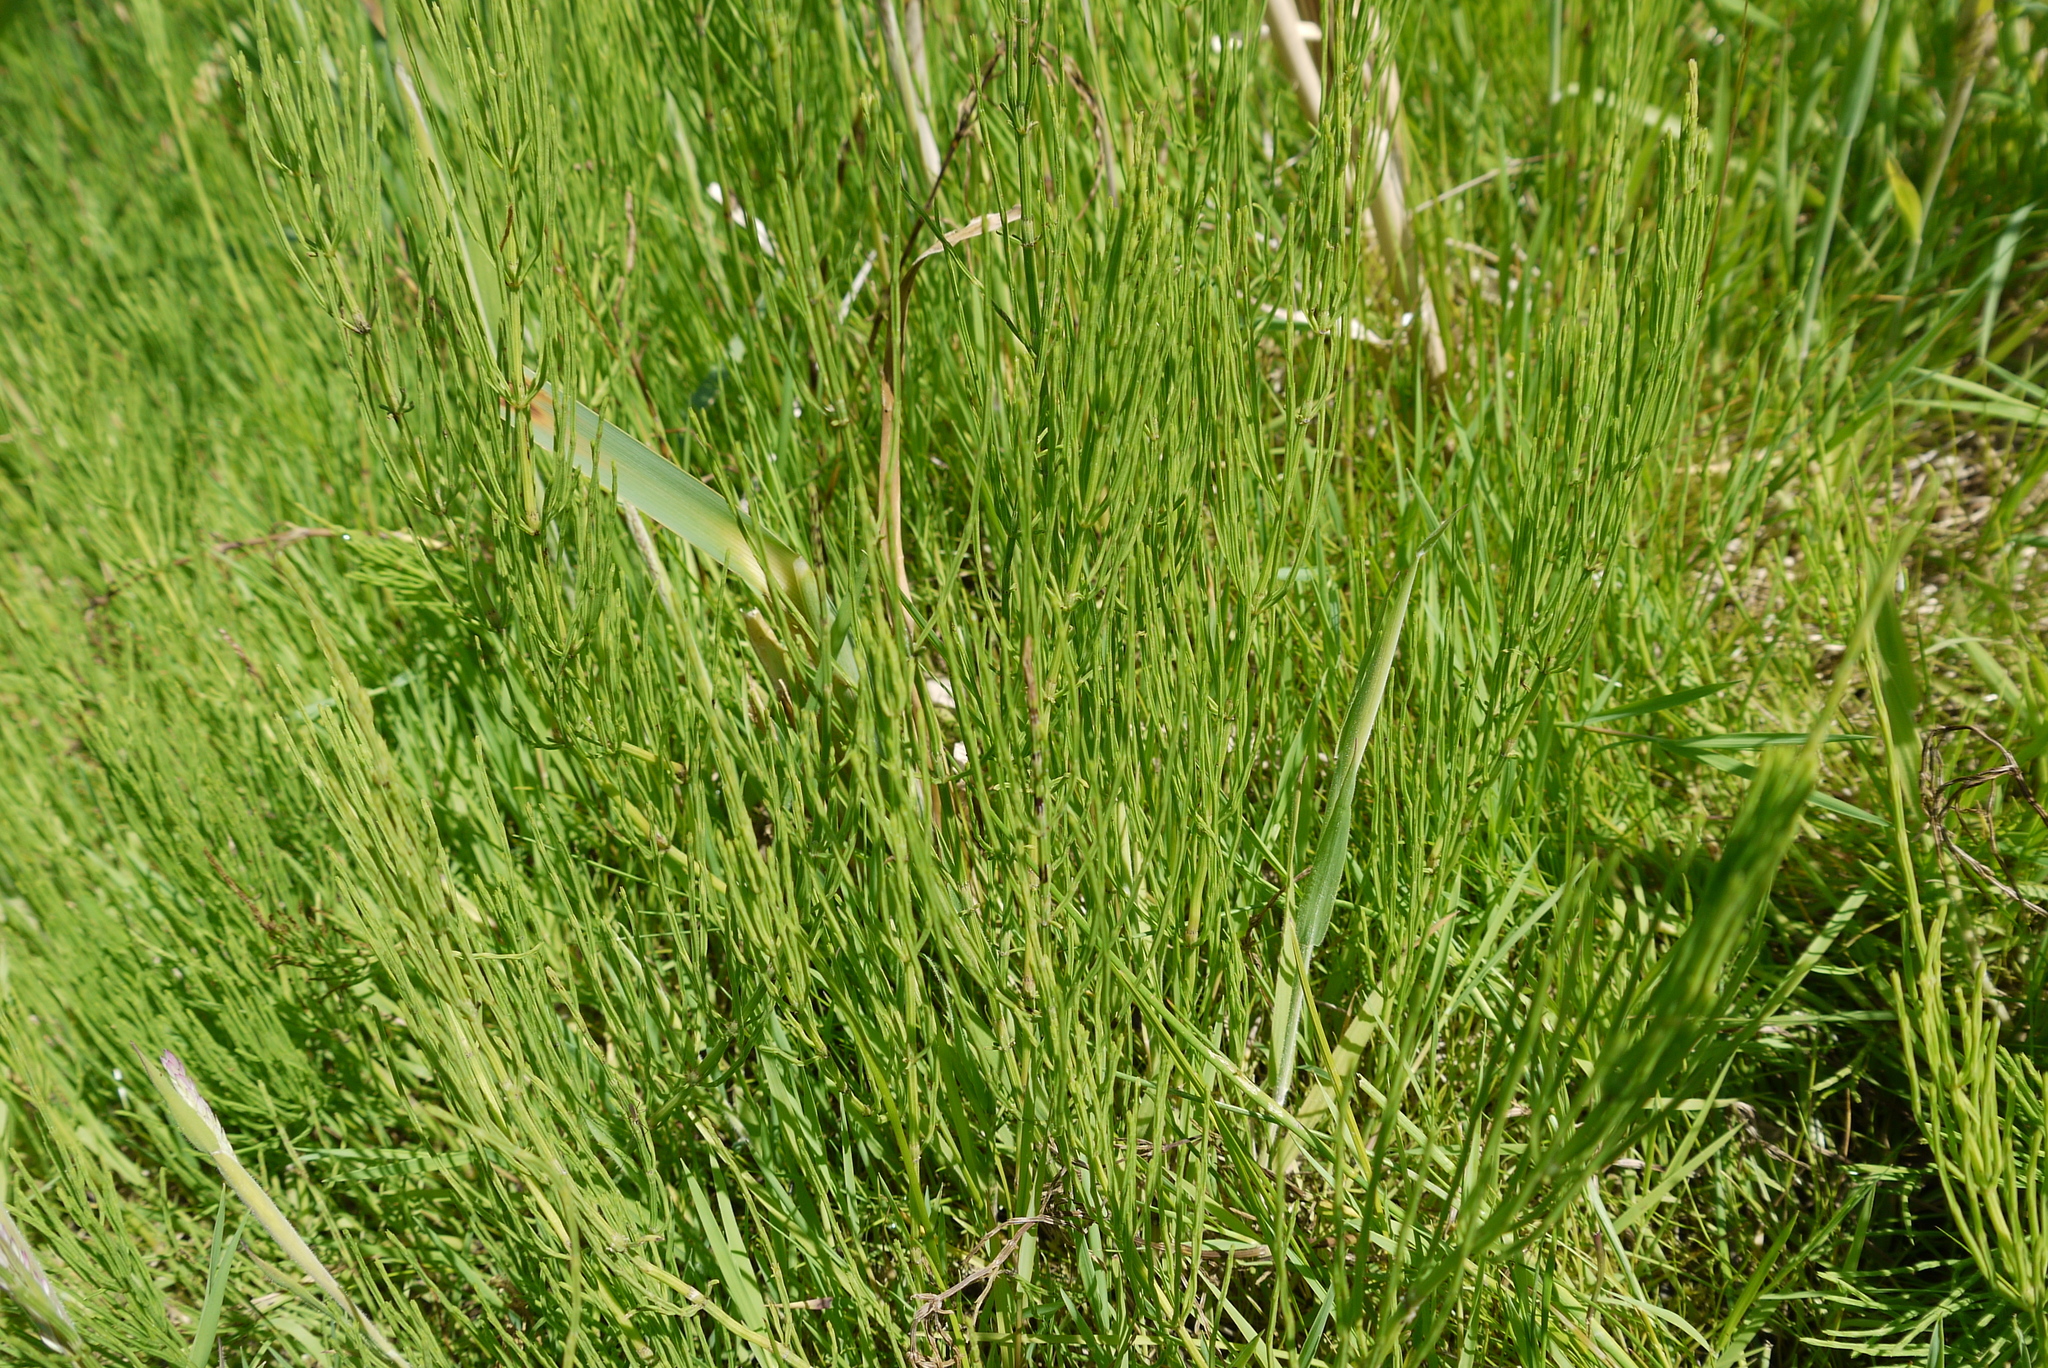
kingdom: Plantae
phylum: Tracheophyta
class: Polypodiopsida
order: Equisetales
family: Equisetaceae
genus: Equisetum
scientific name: Equisetum arvense
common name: Field horsetail
